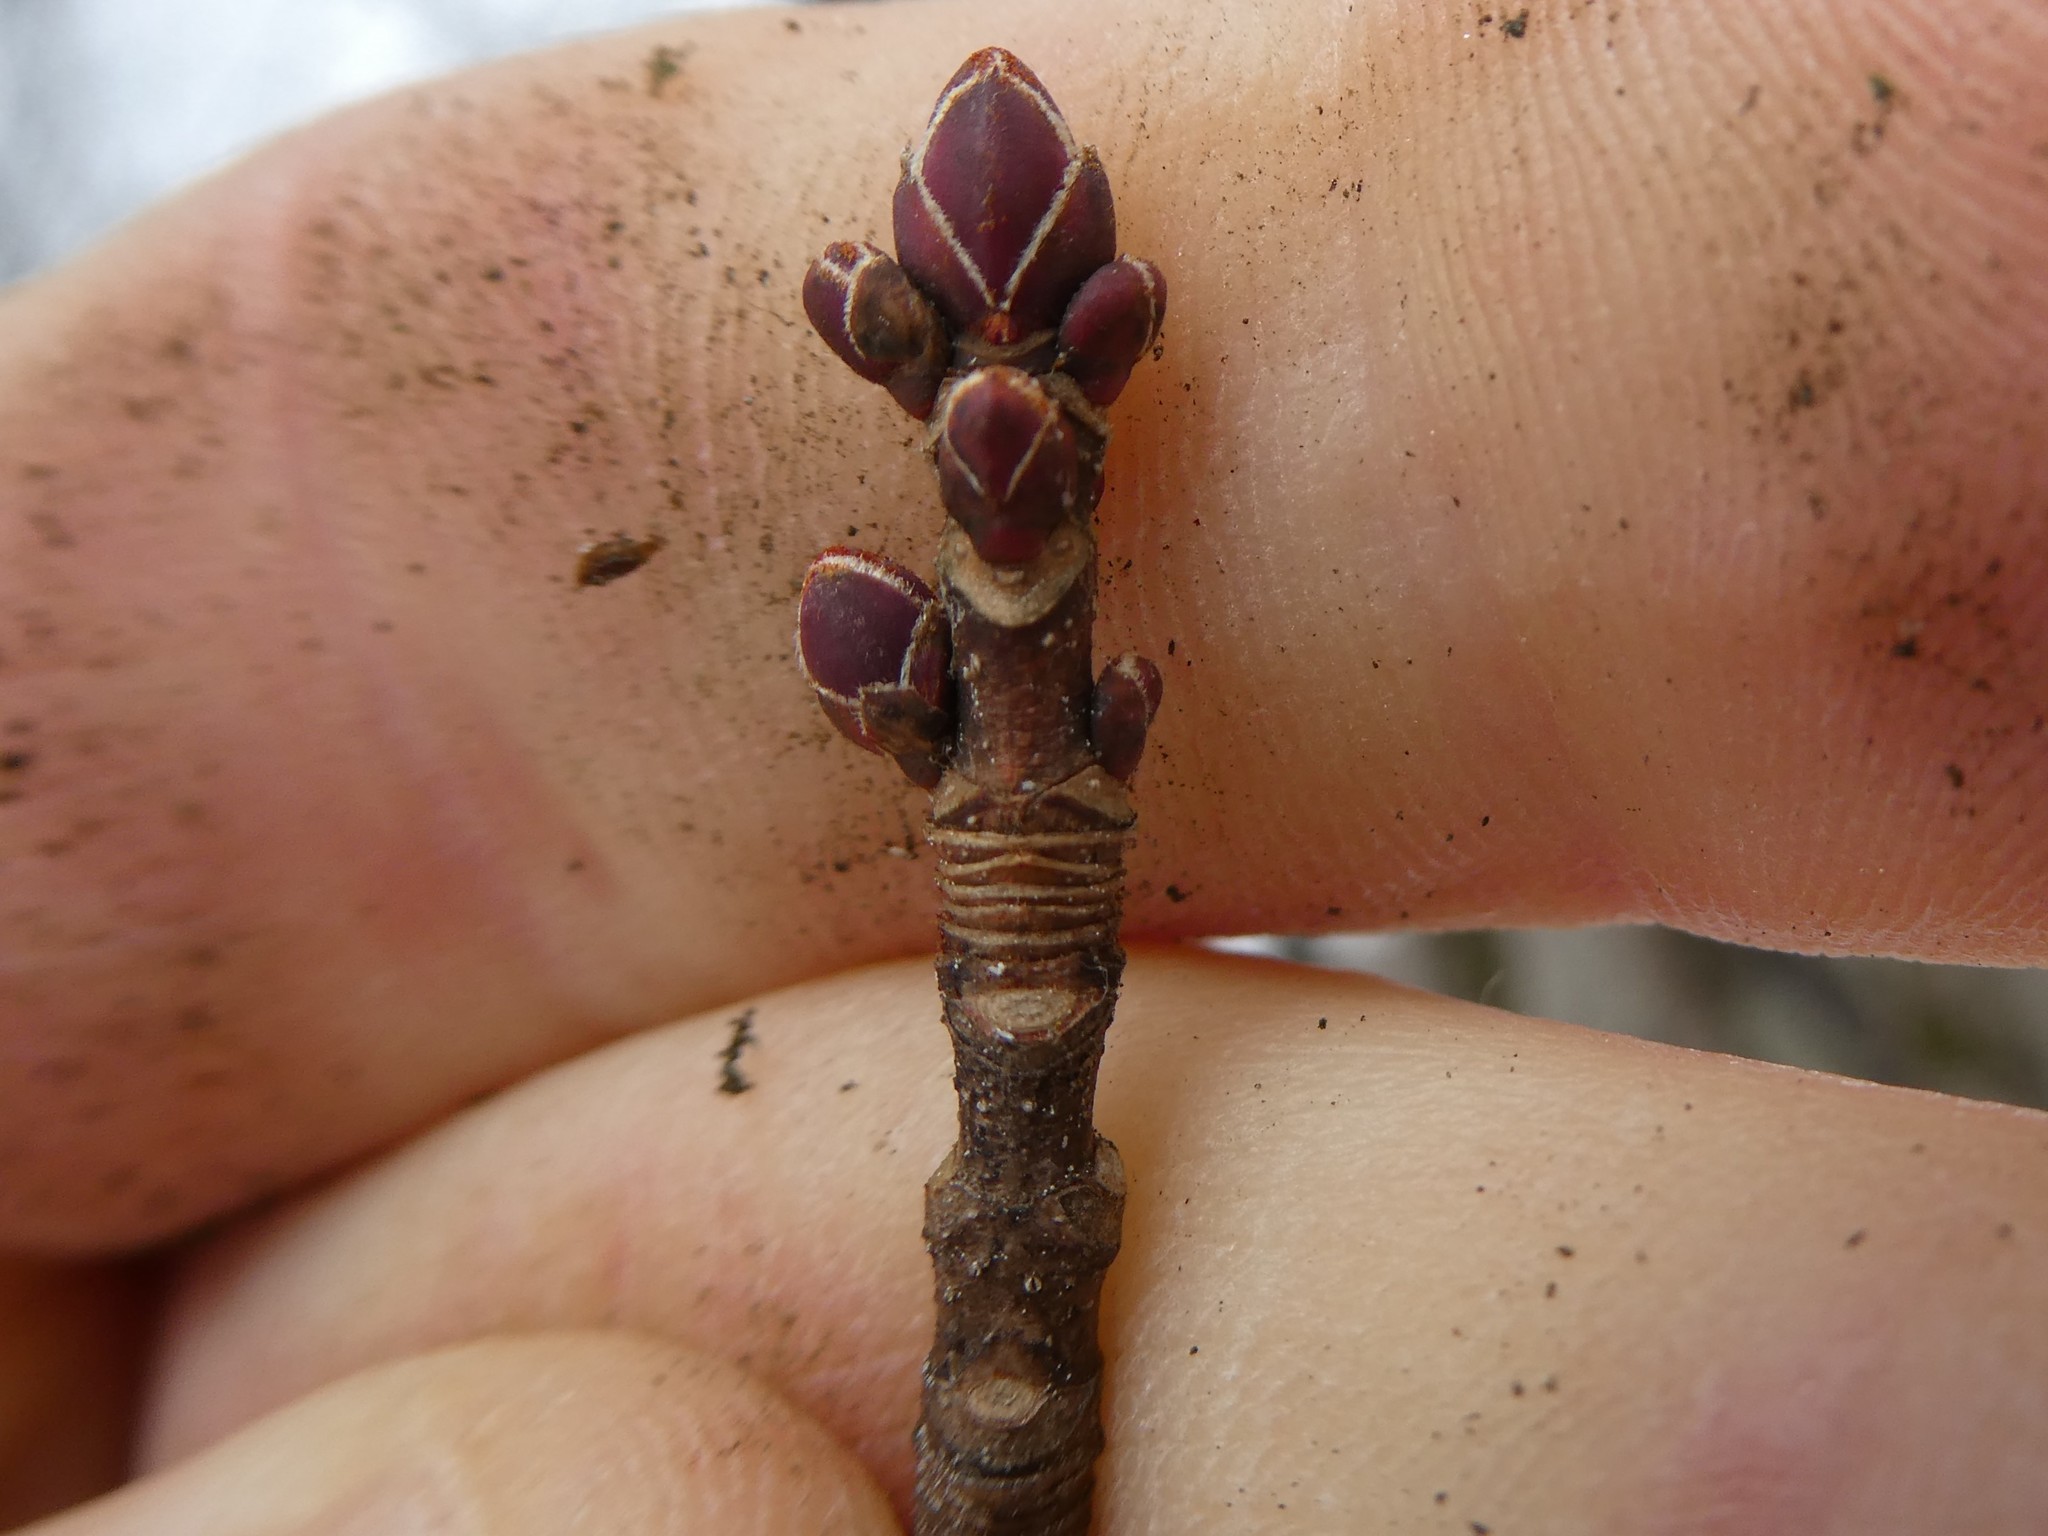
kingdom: Fungi
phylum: Ascomycota
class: Sordariomycetes
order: Hypocreales
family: Nectriaceae
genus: Neonectria
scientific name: Neonectria ditissima
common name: Apple canker
